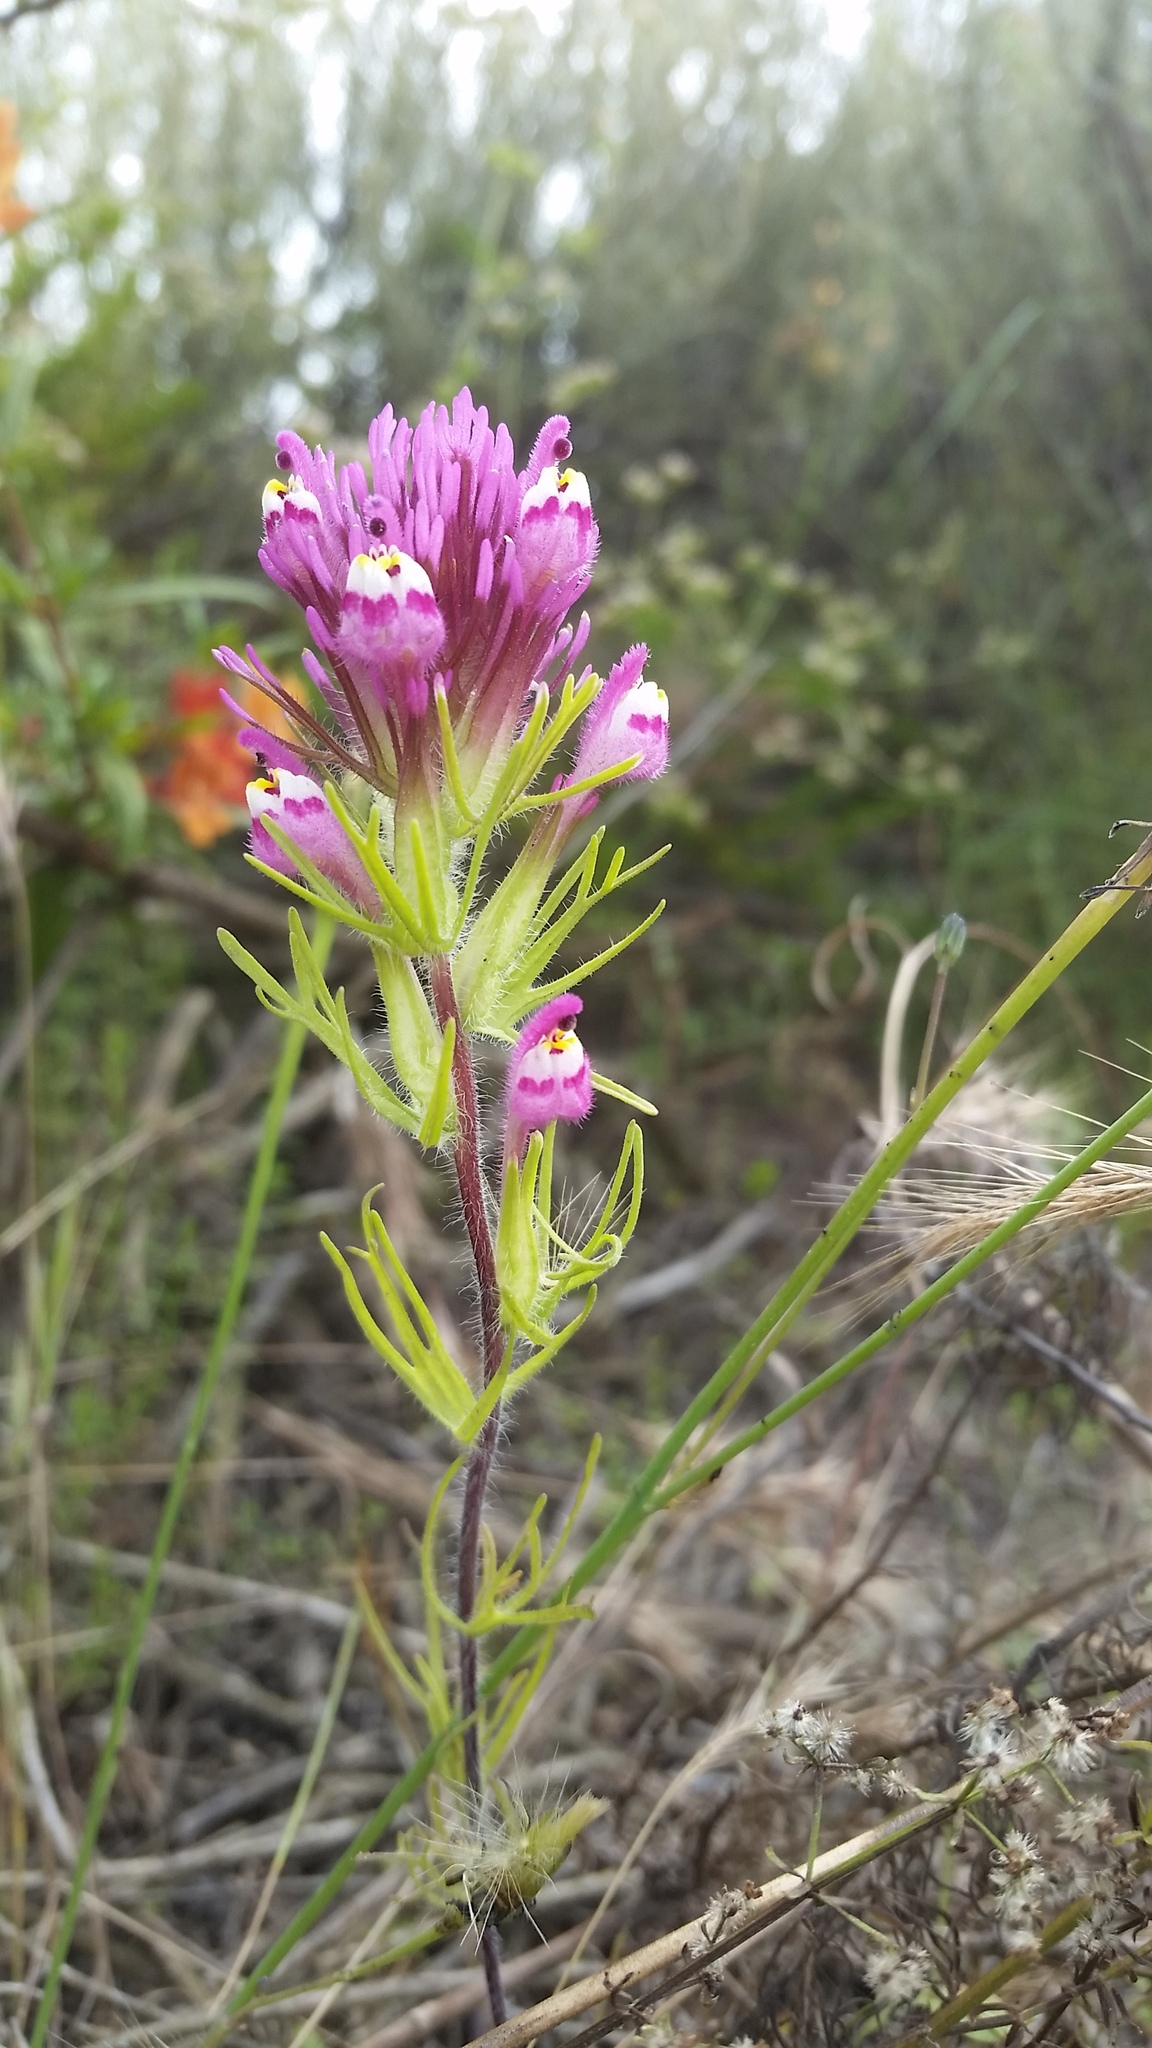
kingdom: Plantae
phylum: Tracheophyta
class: Magnoliopsida
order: Lamiales
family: Orobanchaceae
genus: Castilleja
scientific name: Castilleja exserta
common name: Purple owl-clover
